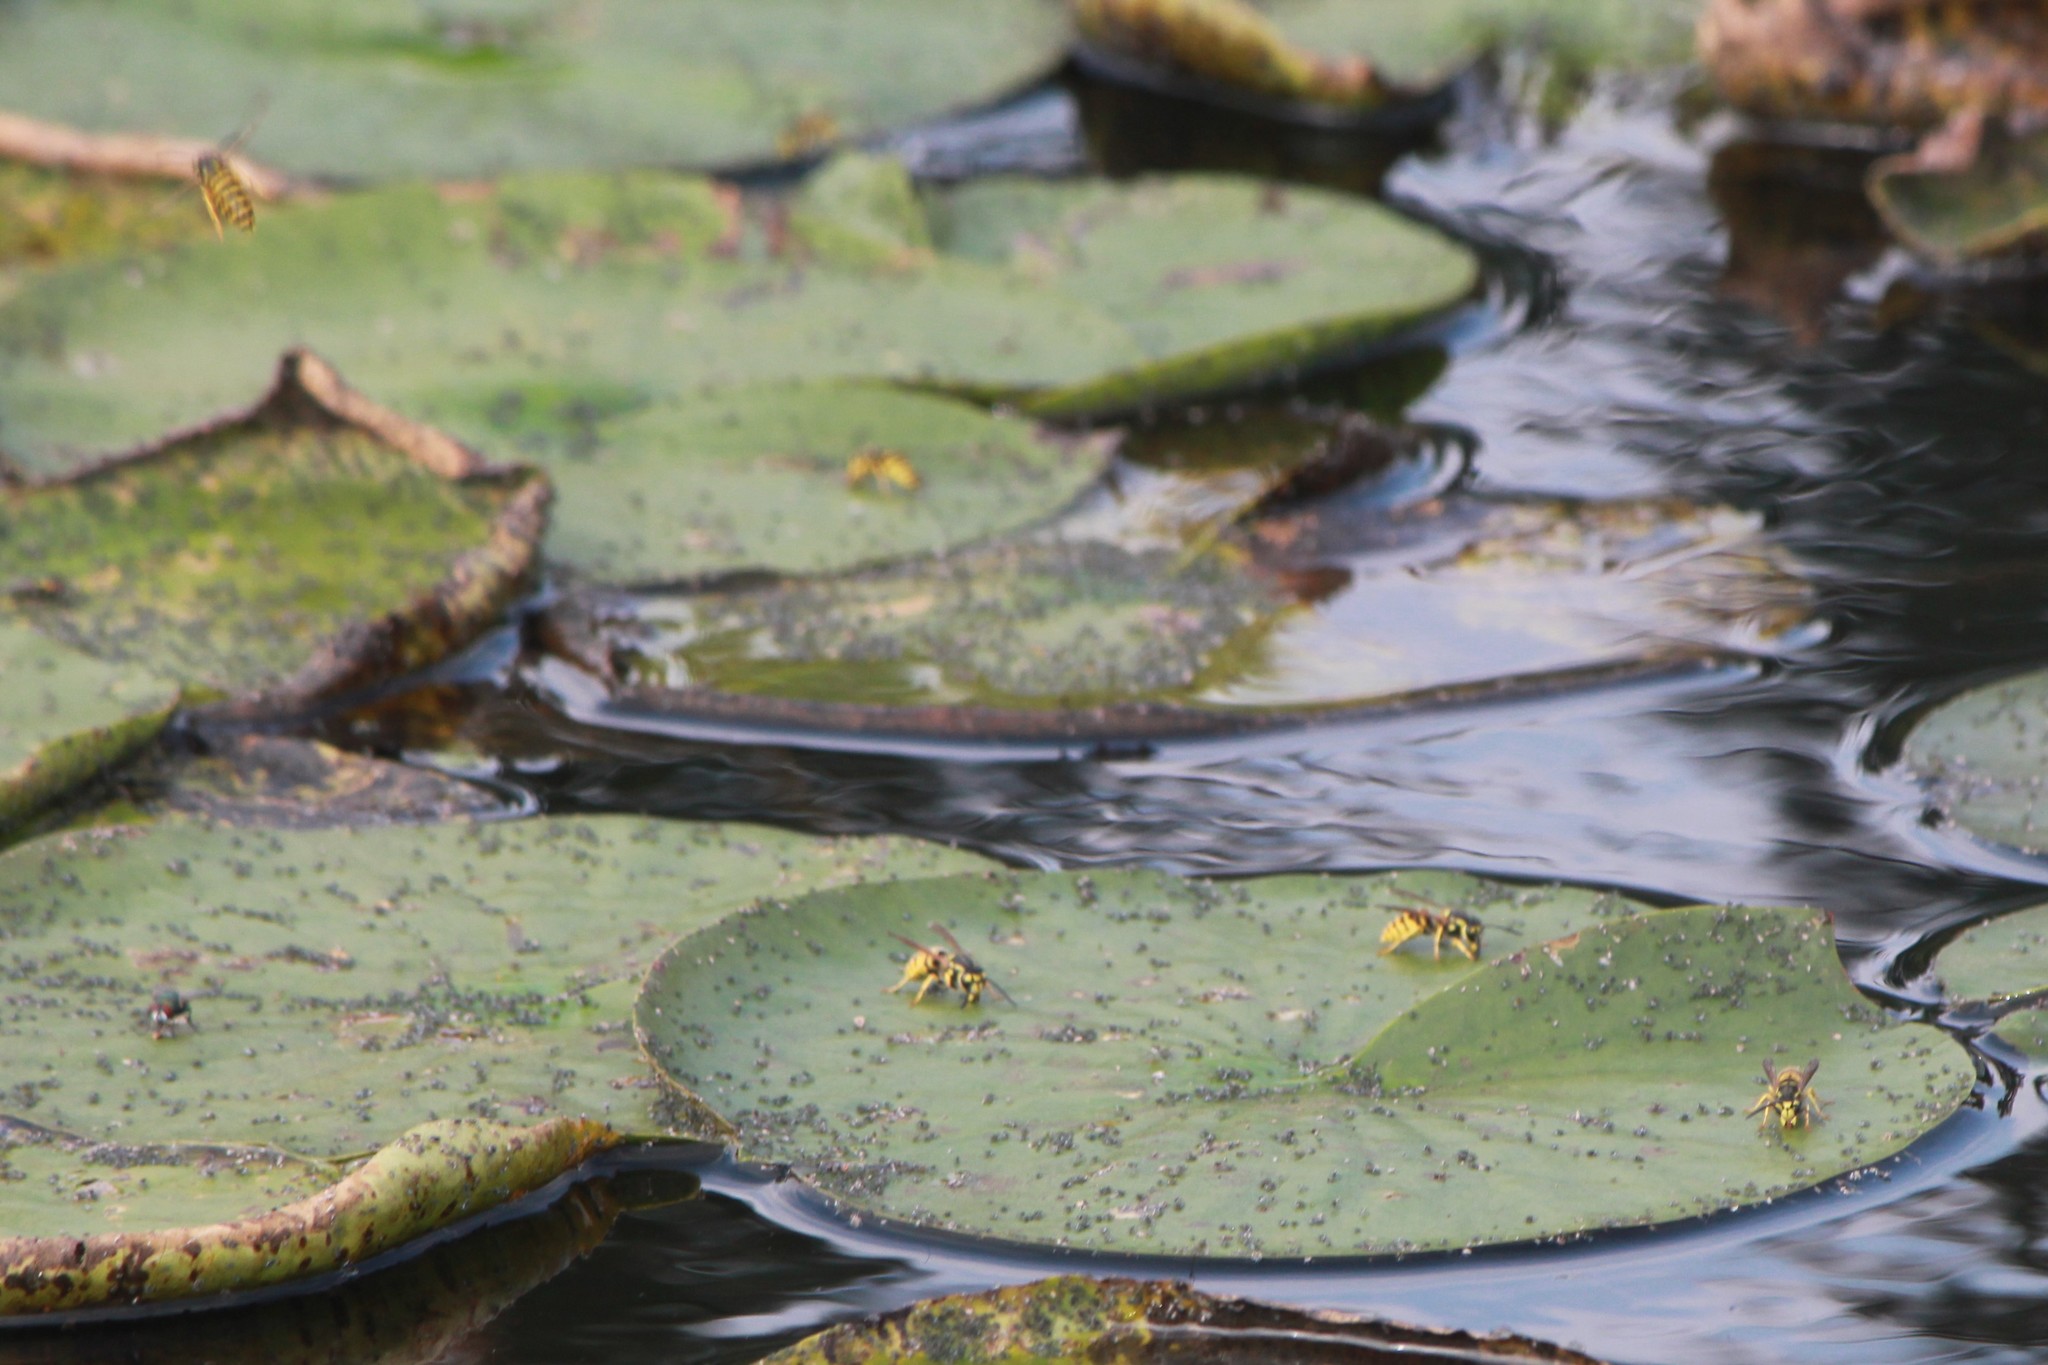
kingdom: Animalia
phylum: Arthropoda
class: Insecta
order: Hymenoptera
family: Vespidae
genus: Vespula
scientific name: Vespula
